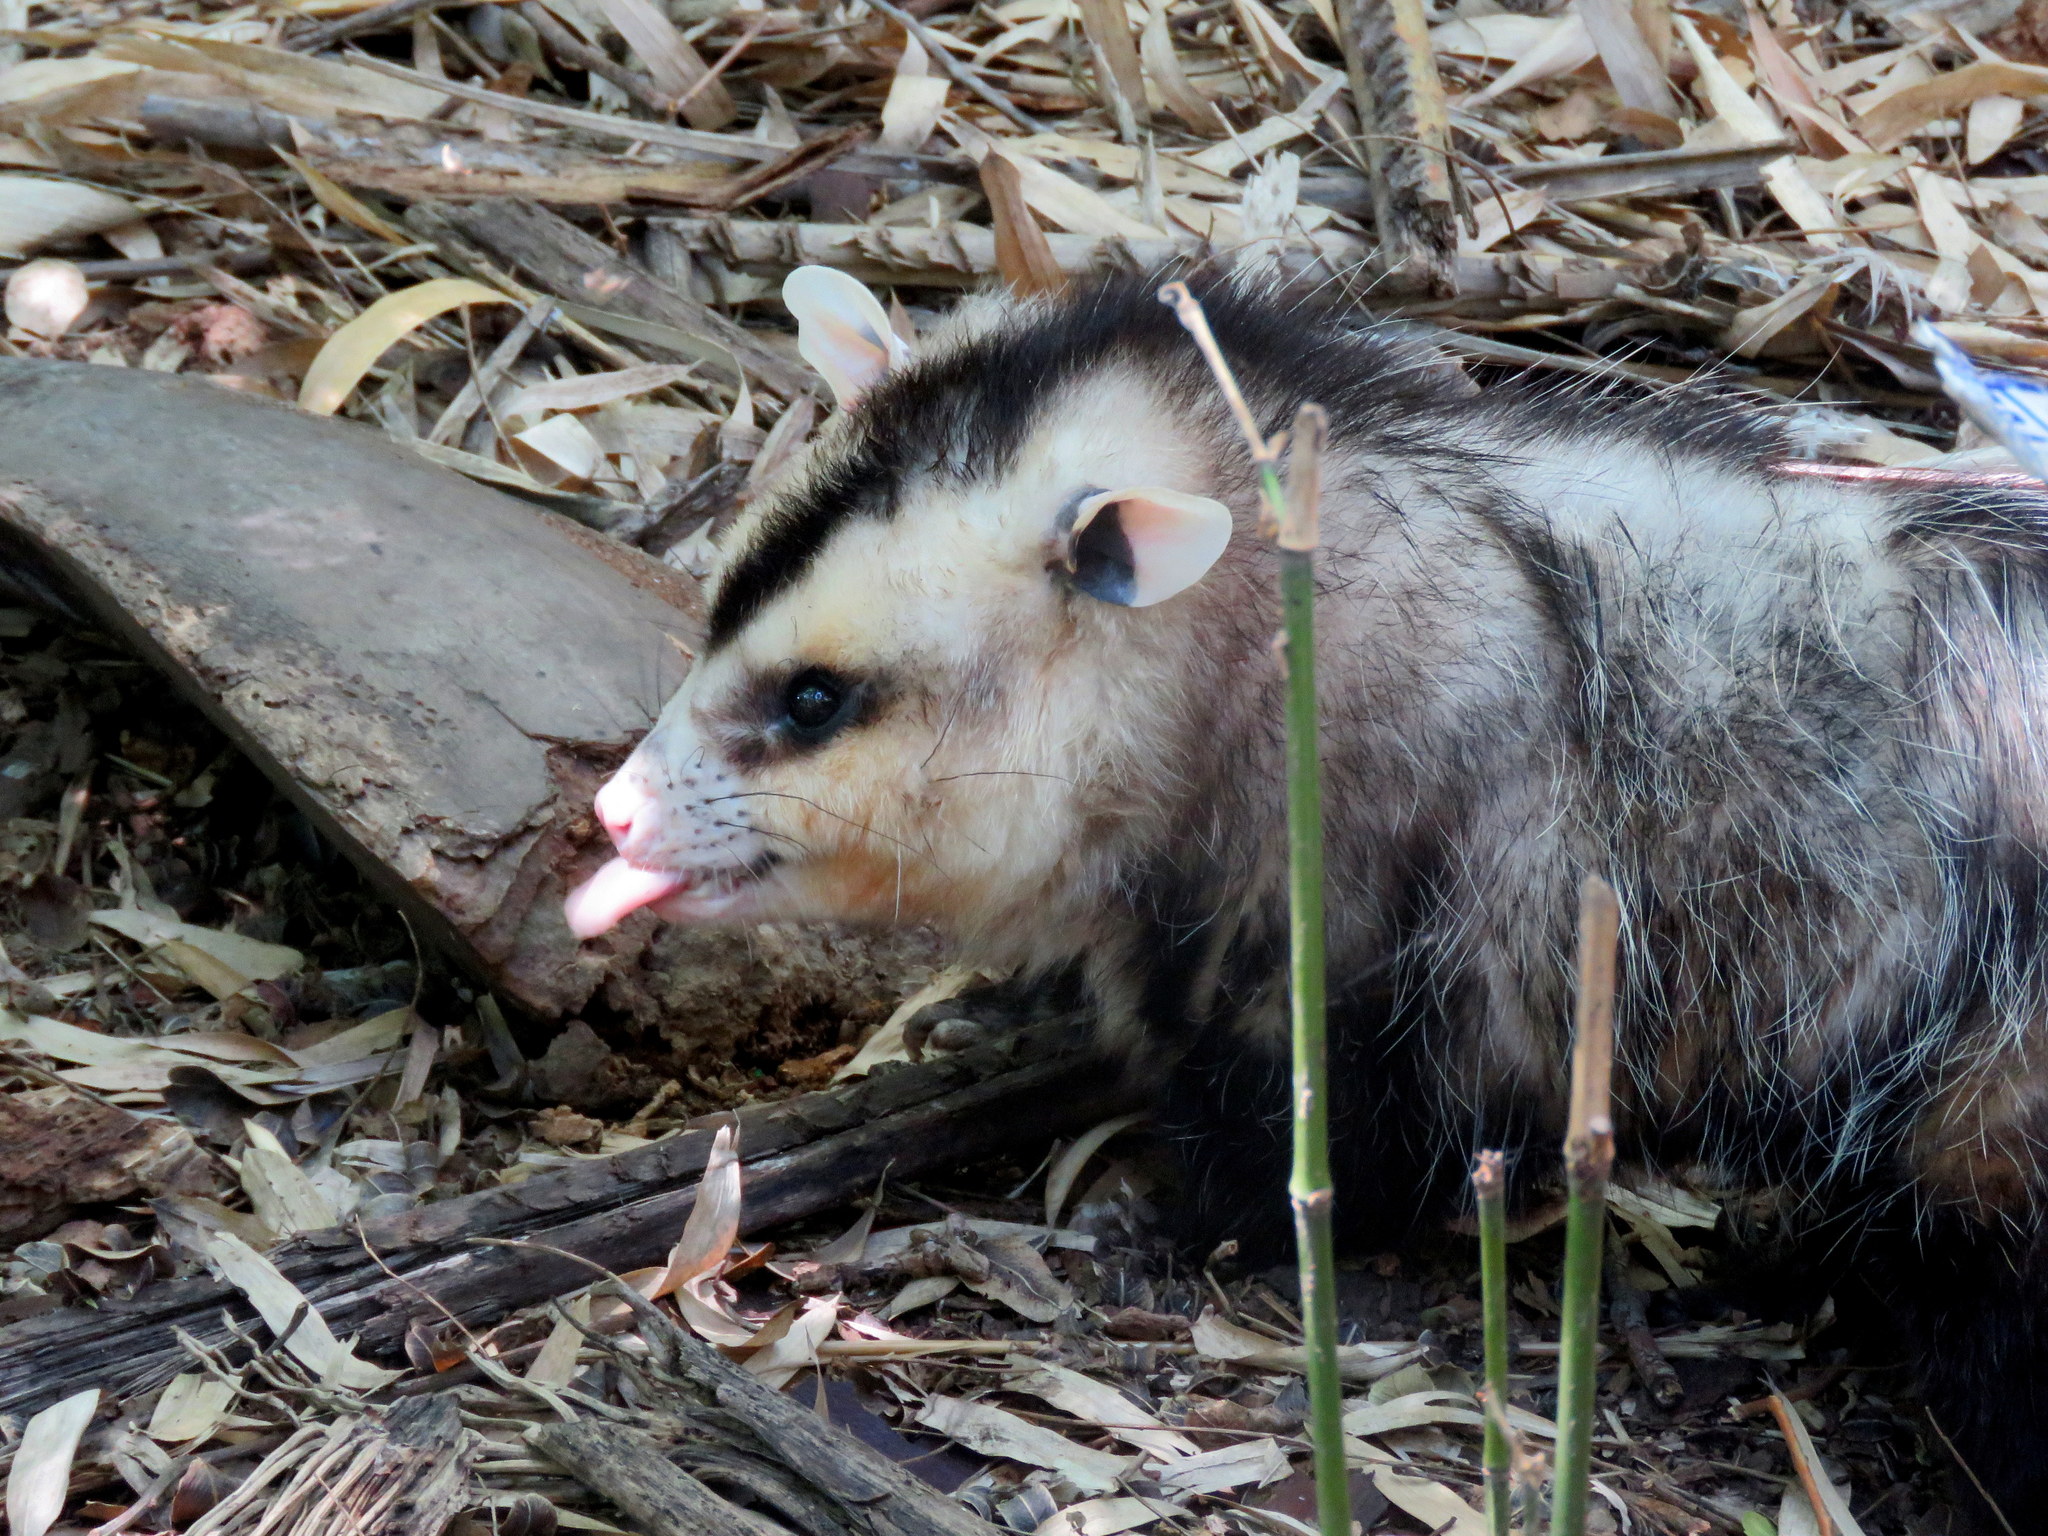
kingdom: Animalia
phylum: Chordata
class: Mammalia
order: Didelphimorphia
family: Didelphidae
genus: Didelphis
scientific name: Didelphis albiventris
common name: White-eared opossum
